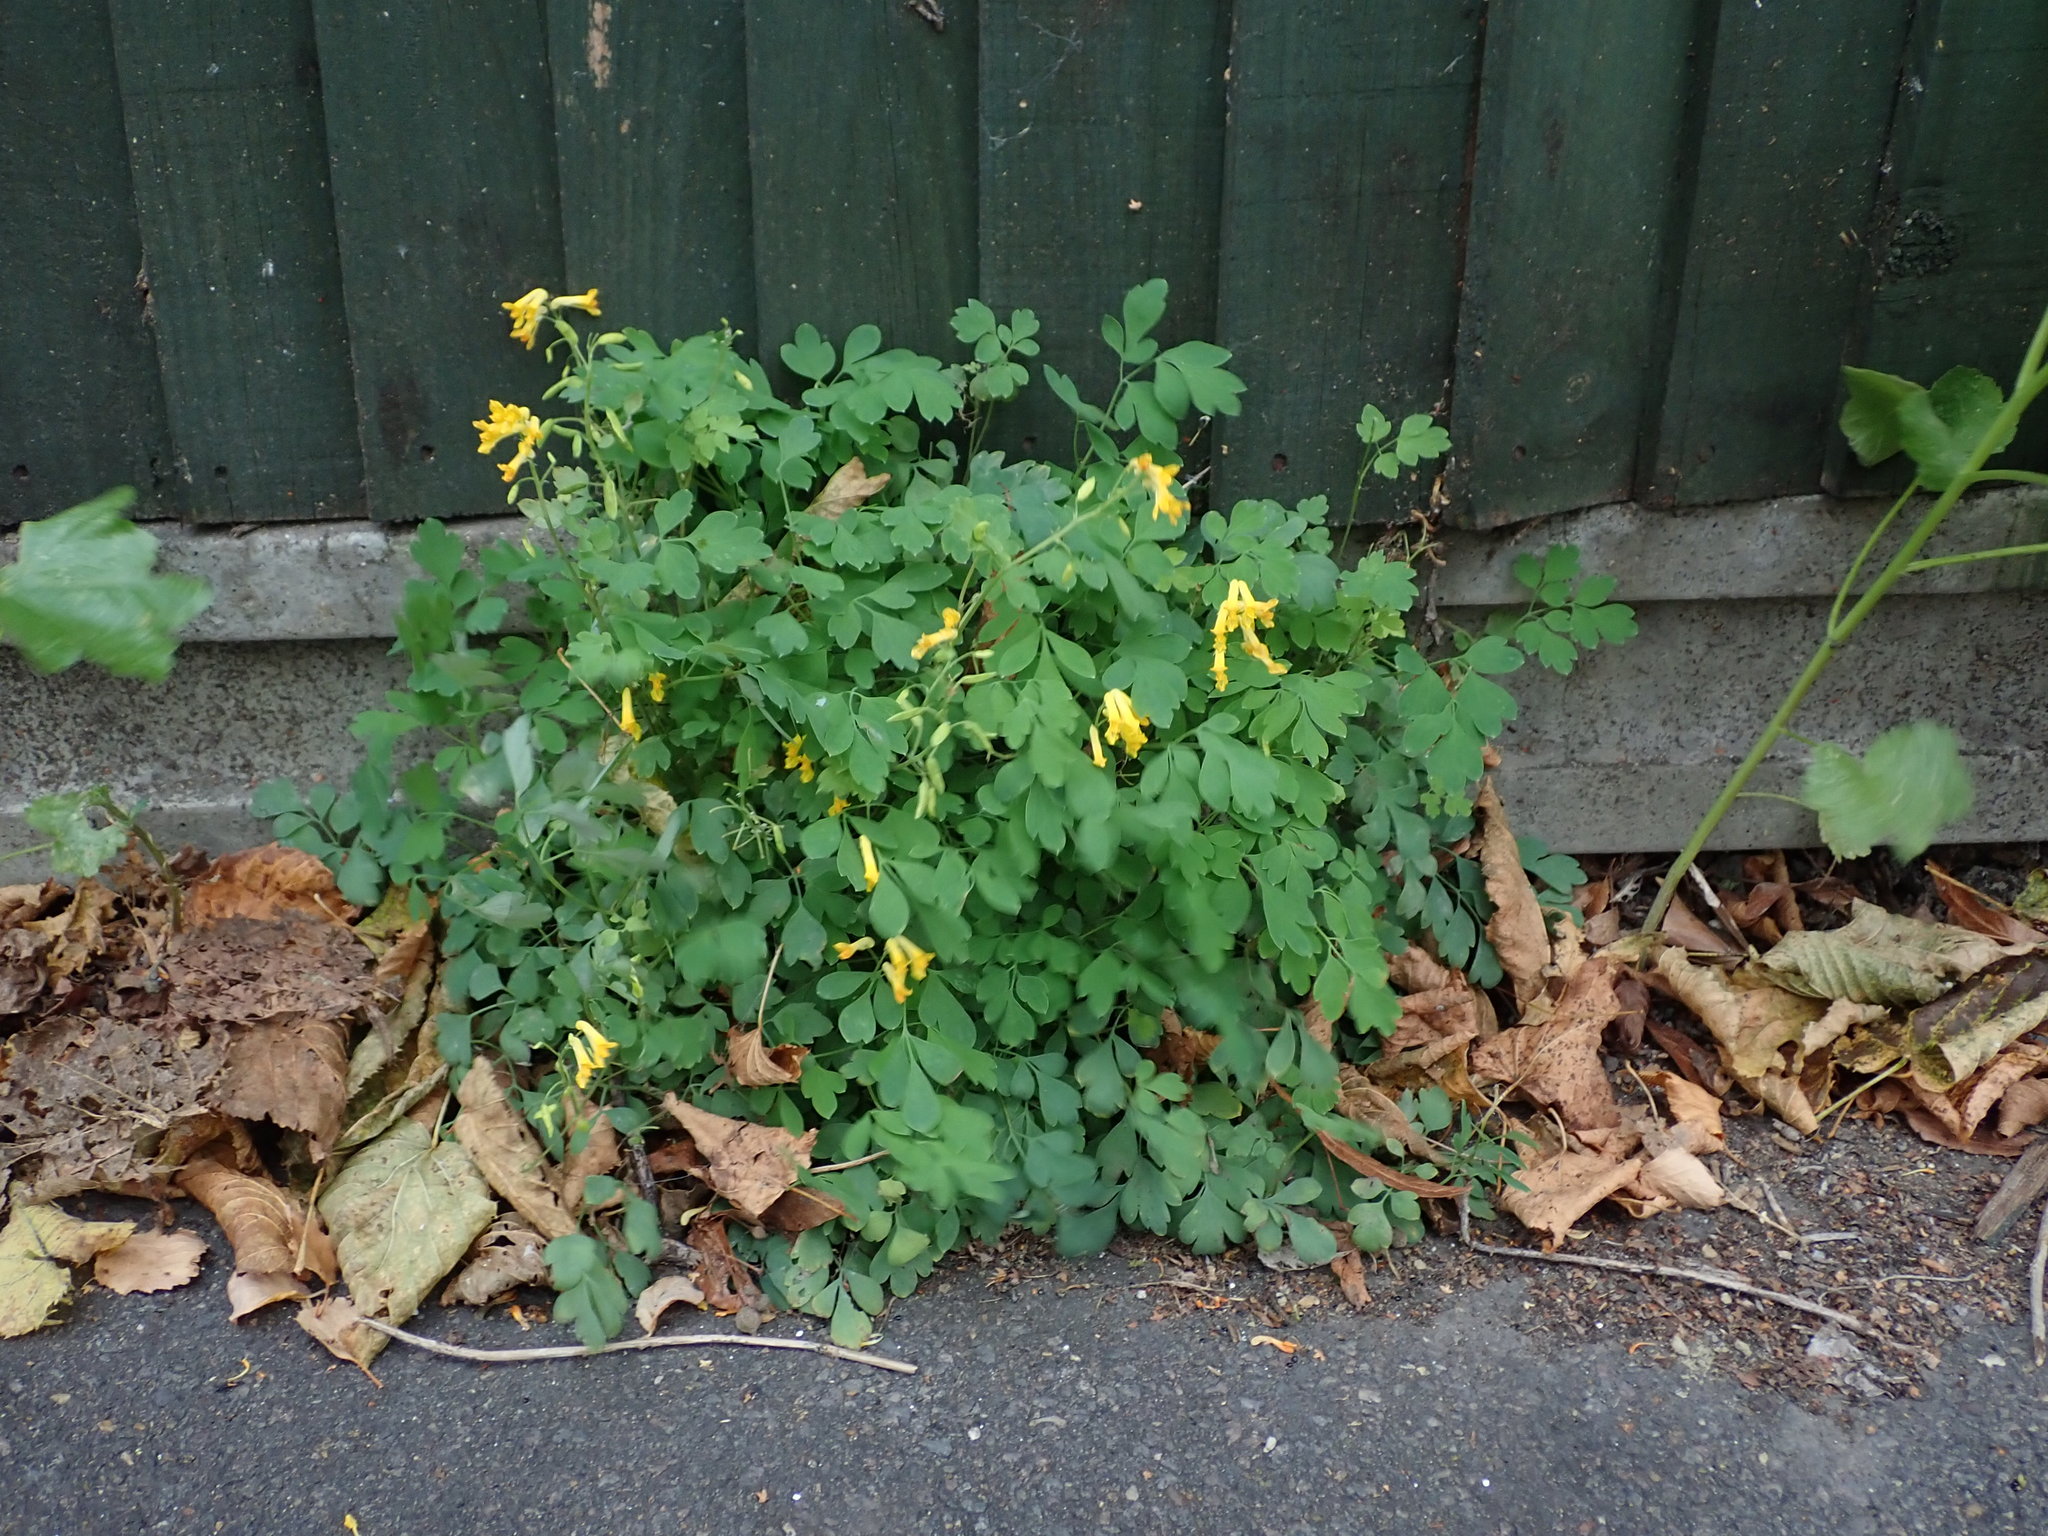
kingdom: Plantae
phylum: Tracheophyta
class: Magnoliopsida
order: Ranunculales
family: Papaveraceae
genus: Pseudofumaria
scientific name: Pseudofumaria lutea
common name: Yellow corydalis
